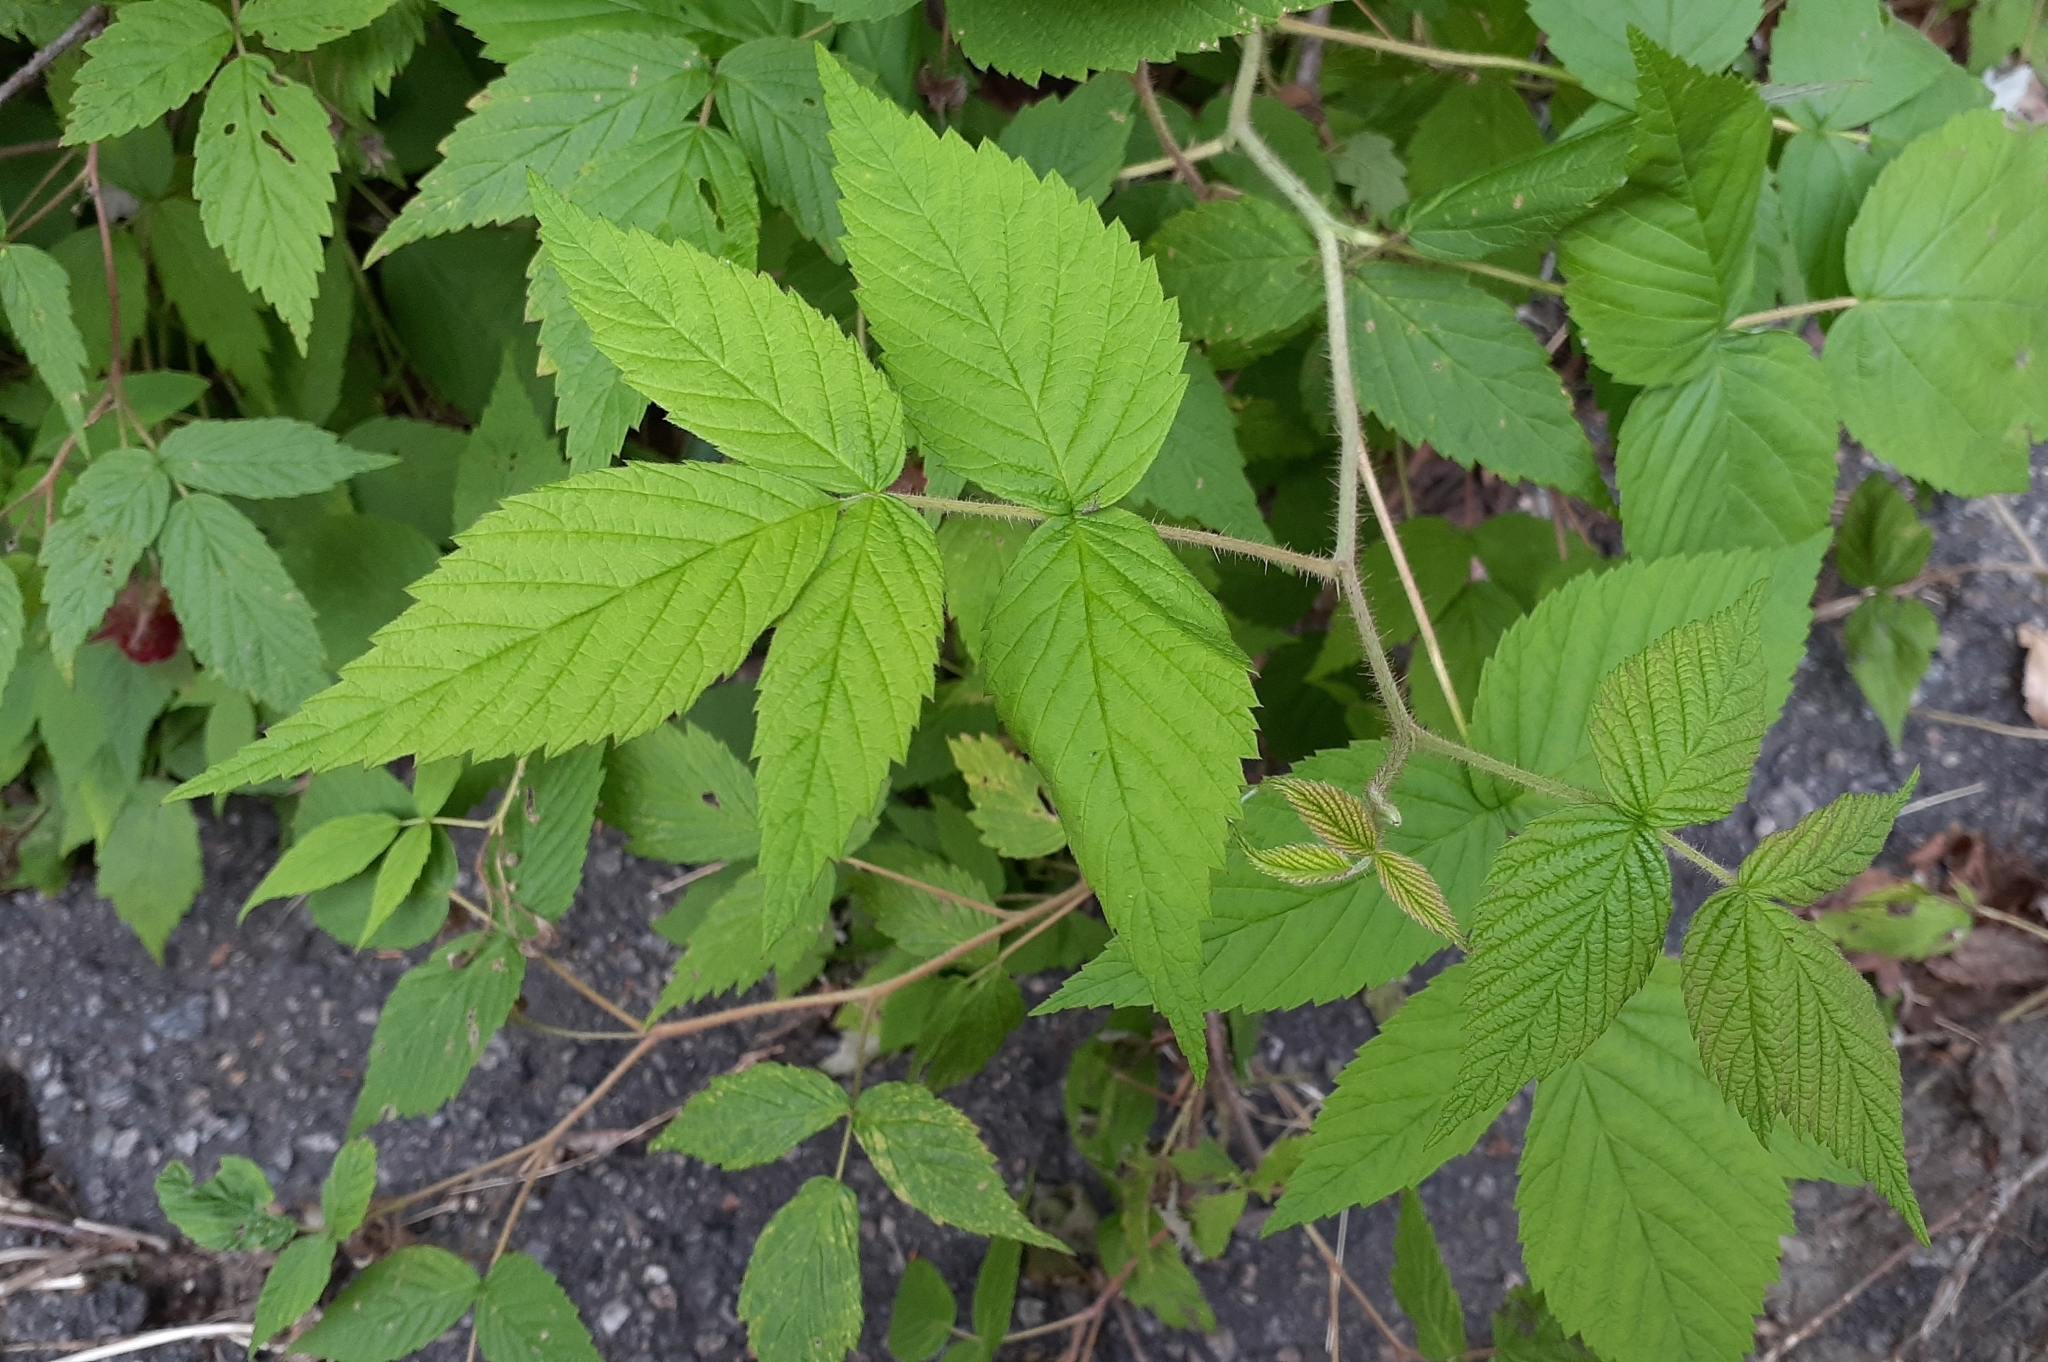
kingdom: Plantae
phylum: Tracheophyta
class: Magnoliopsida
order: Rosales
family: Rosaceae
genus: Rubus
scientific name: Rubus idaeus
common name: Raspberry
